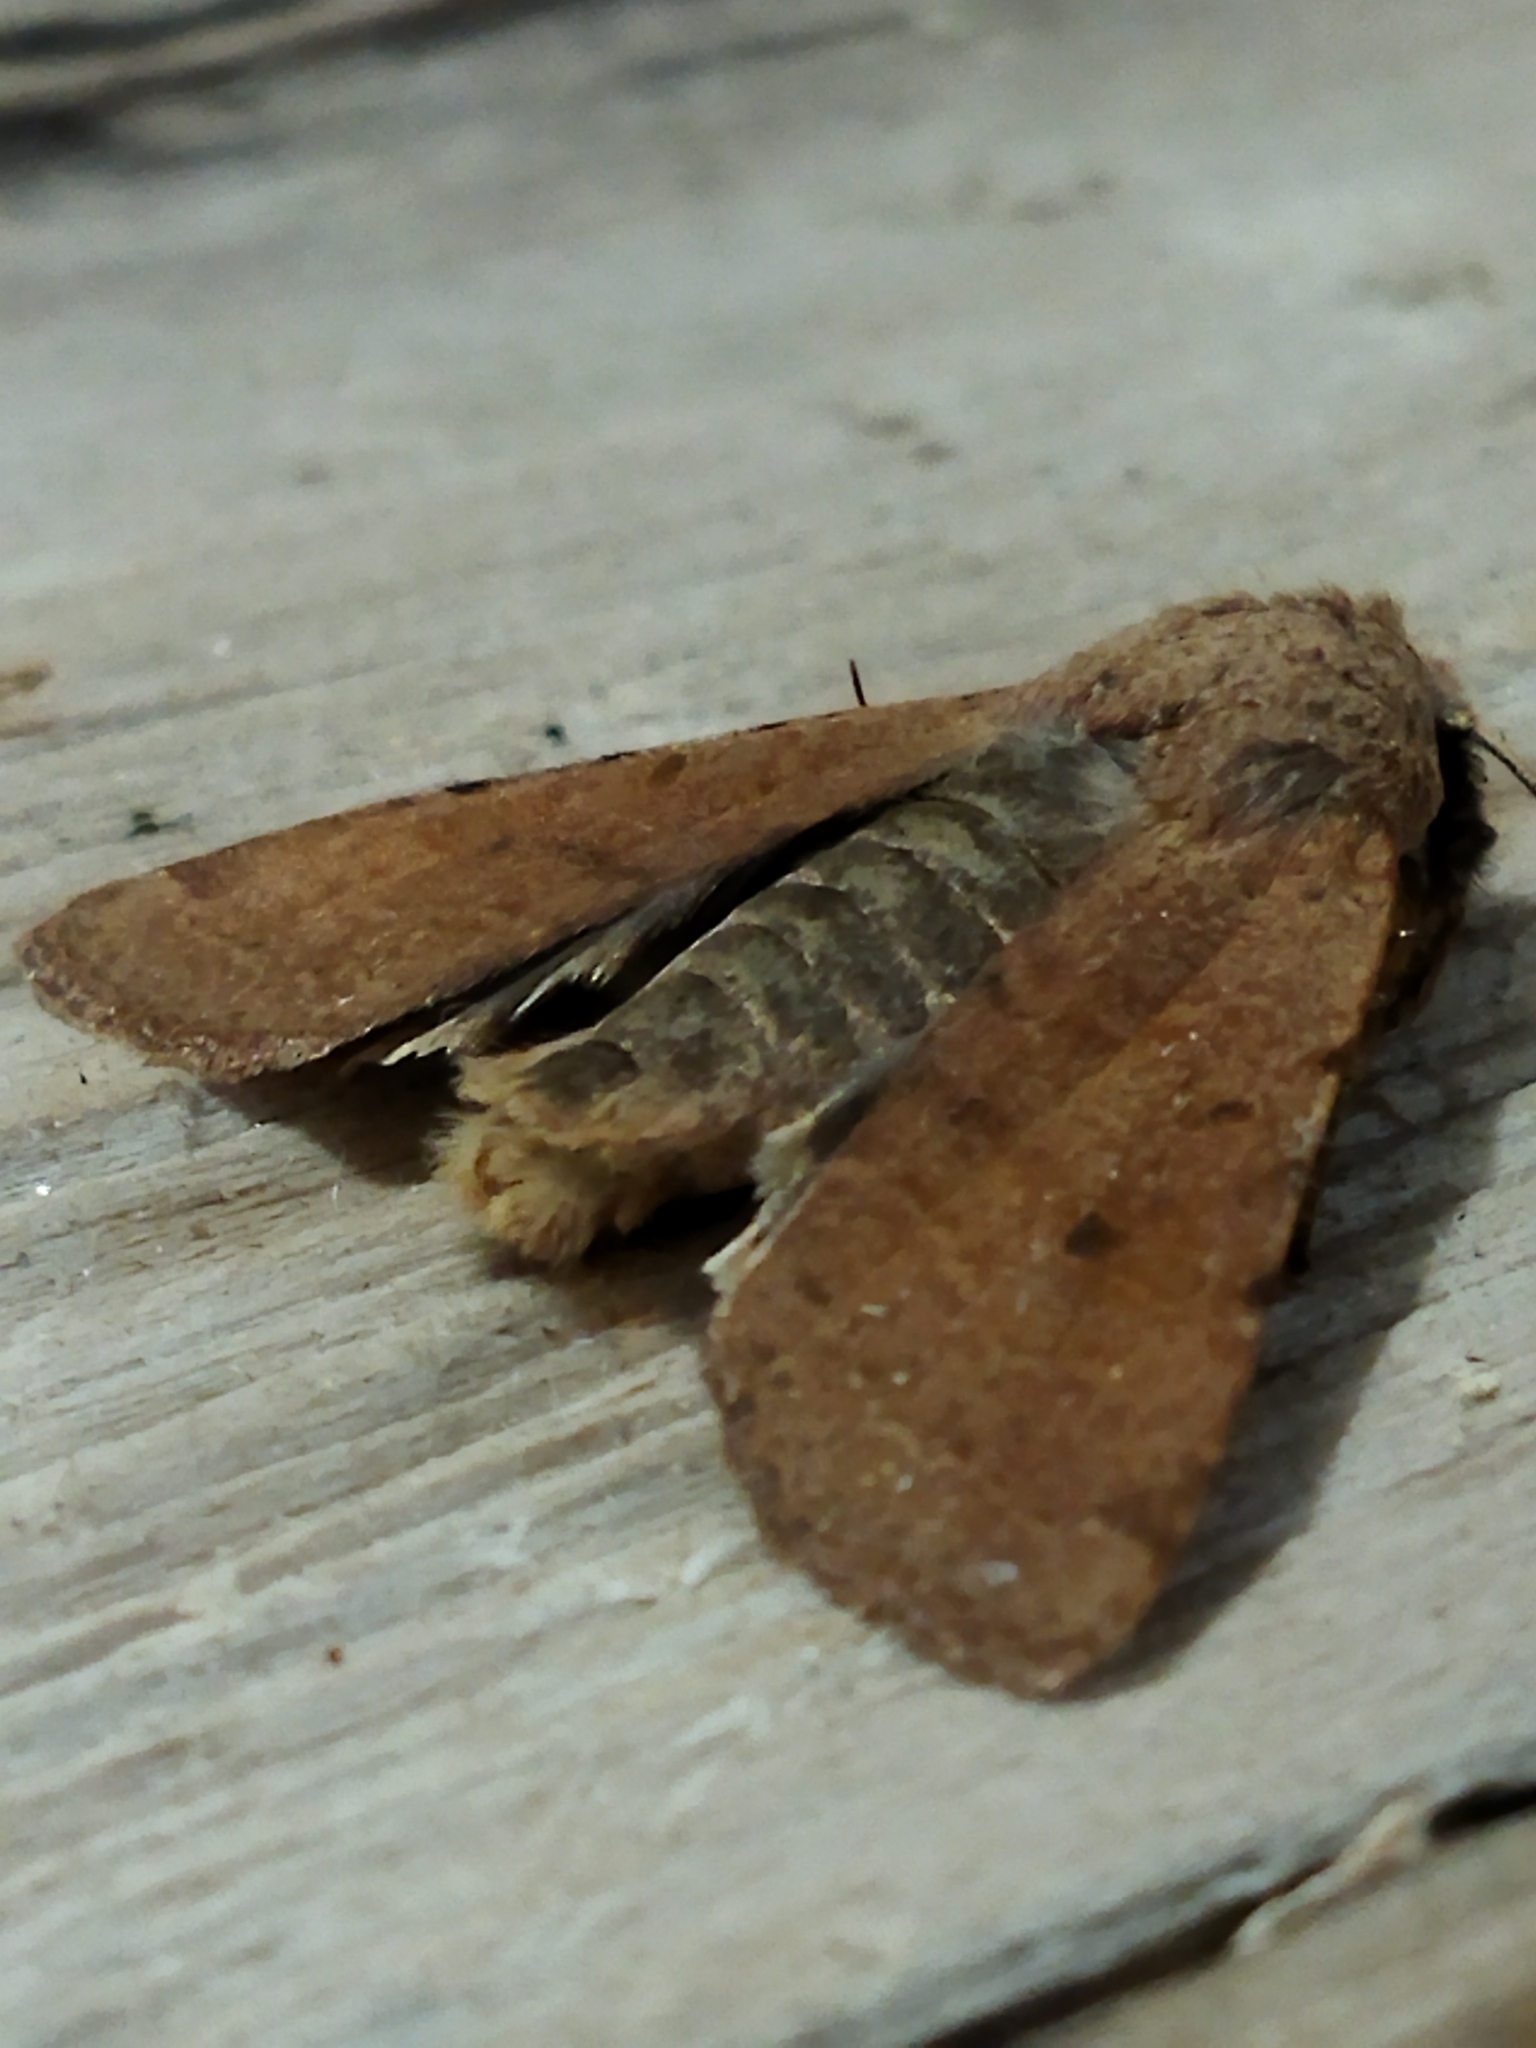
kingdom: Animalia
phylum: Arthropoda
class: Insecta
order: Lepidoptera
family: Noctuidae
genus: Agrochola
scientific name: Agrochola lychnidis
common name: Beaded chestnut
